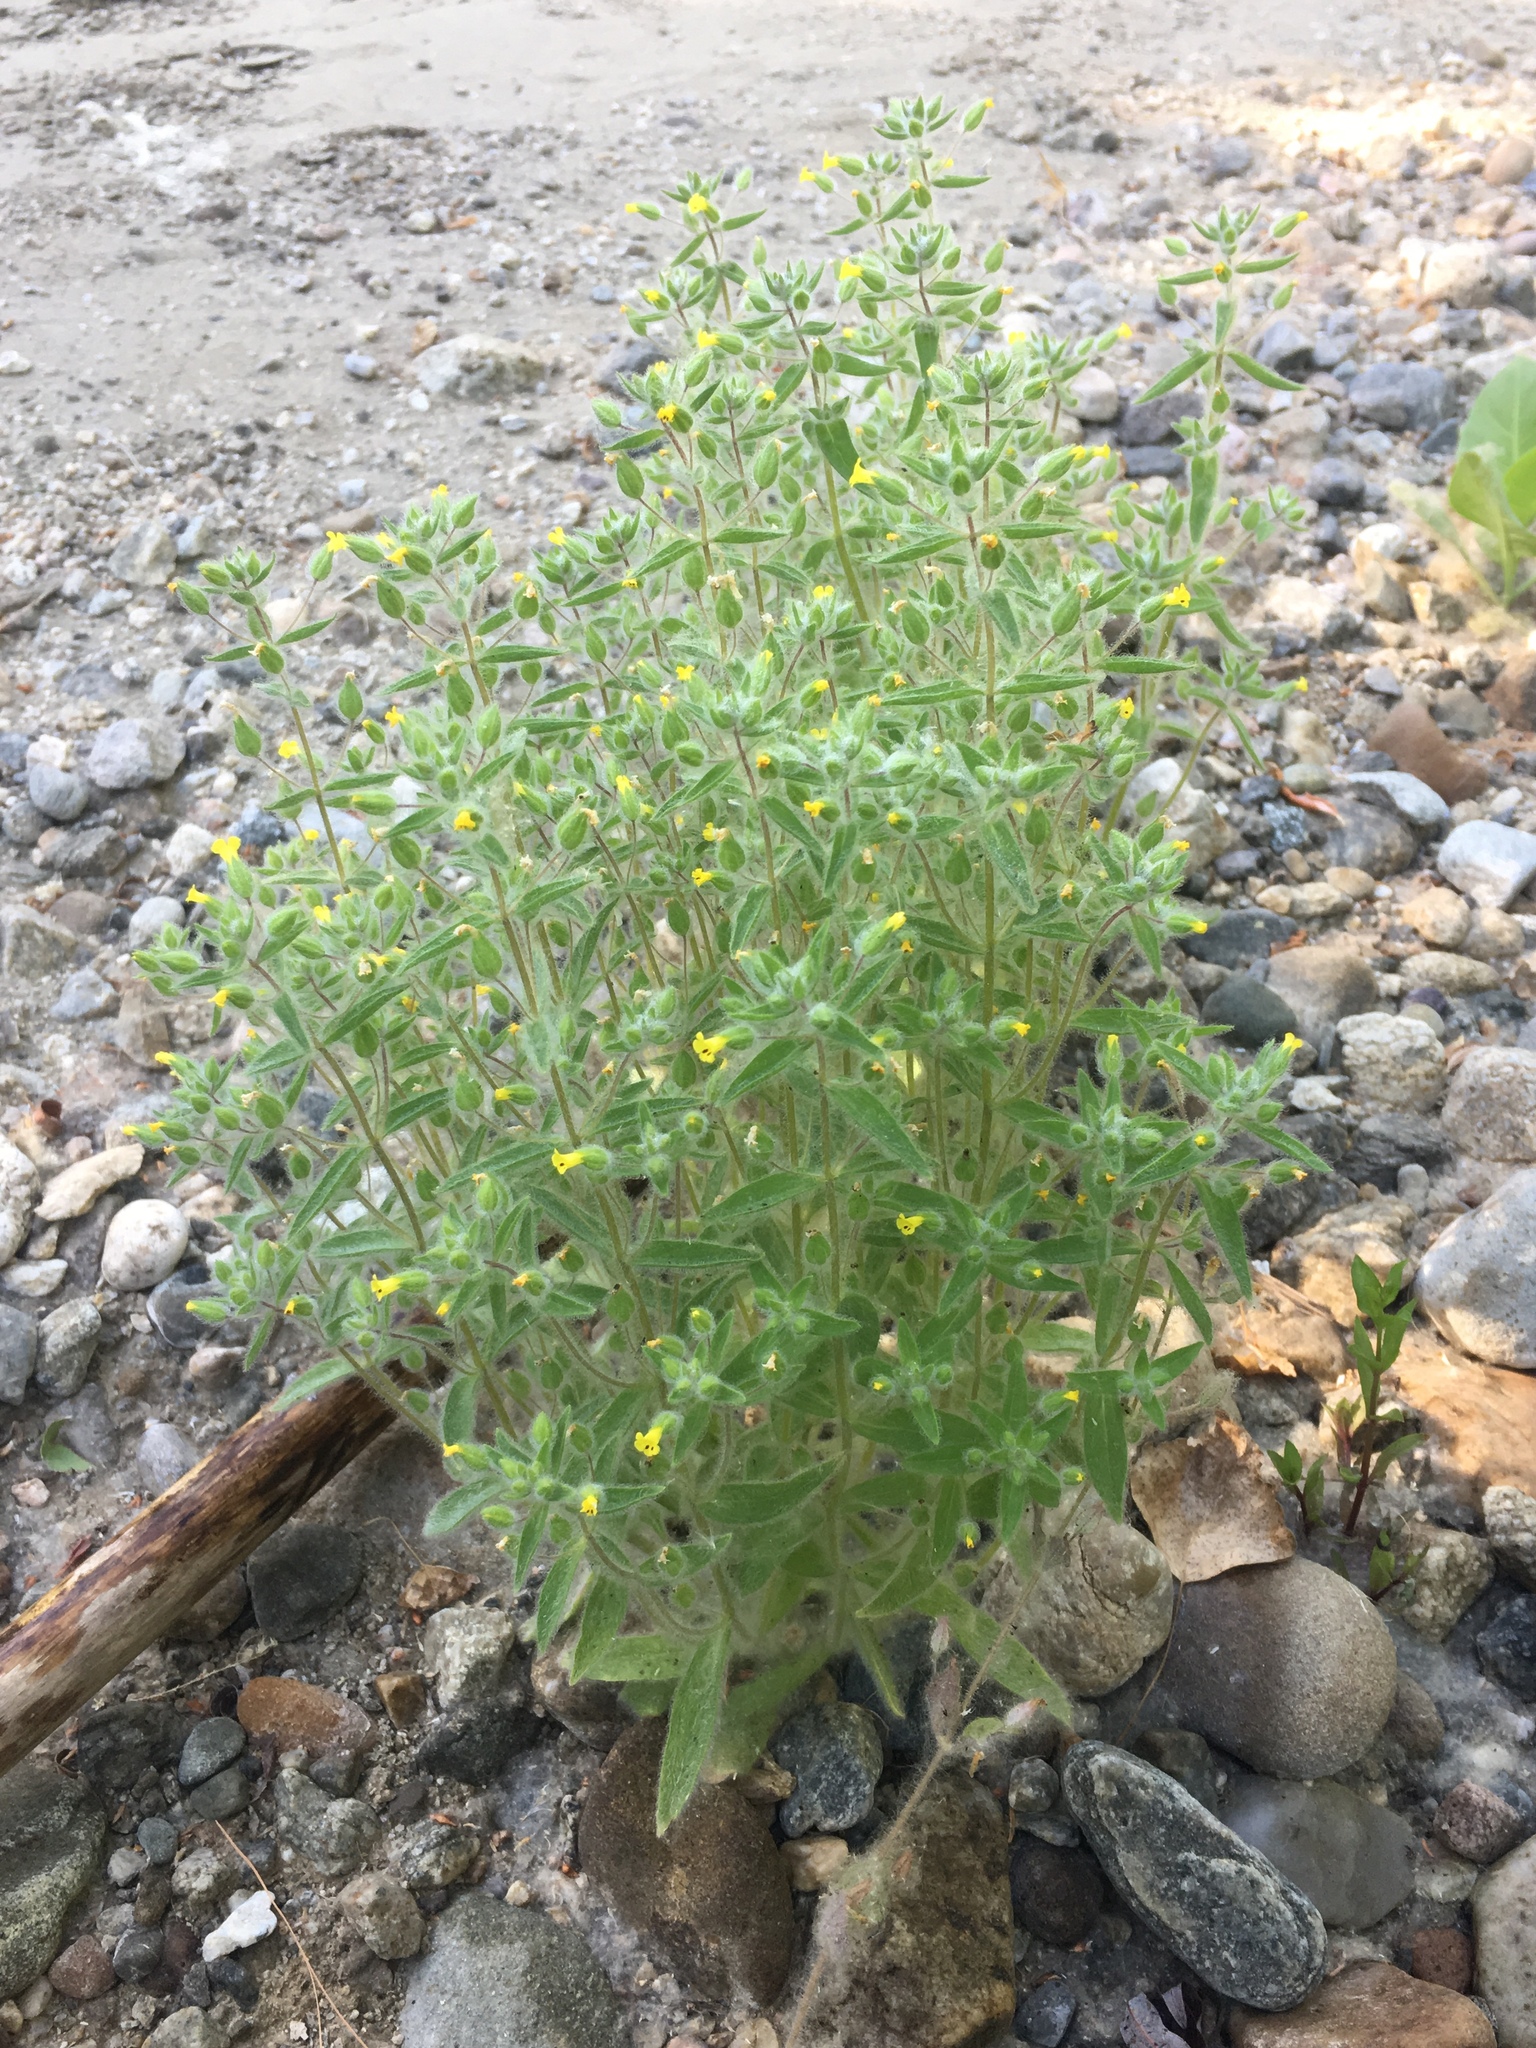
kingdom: Plantae
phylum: Tracheophyta
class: Magnoliopsida
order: Lamiales
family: Phrymaceae
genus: Mimetanthe
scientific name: Mimetanthe pilosa
